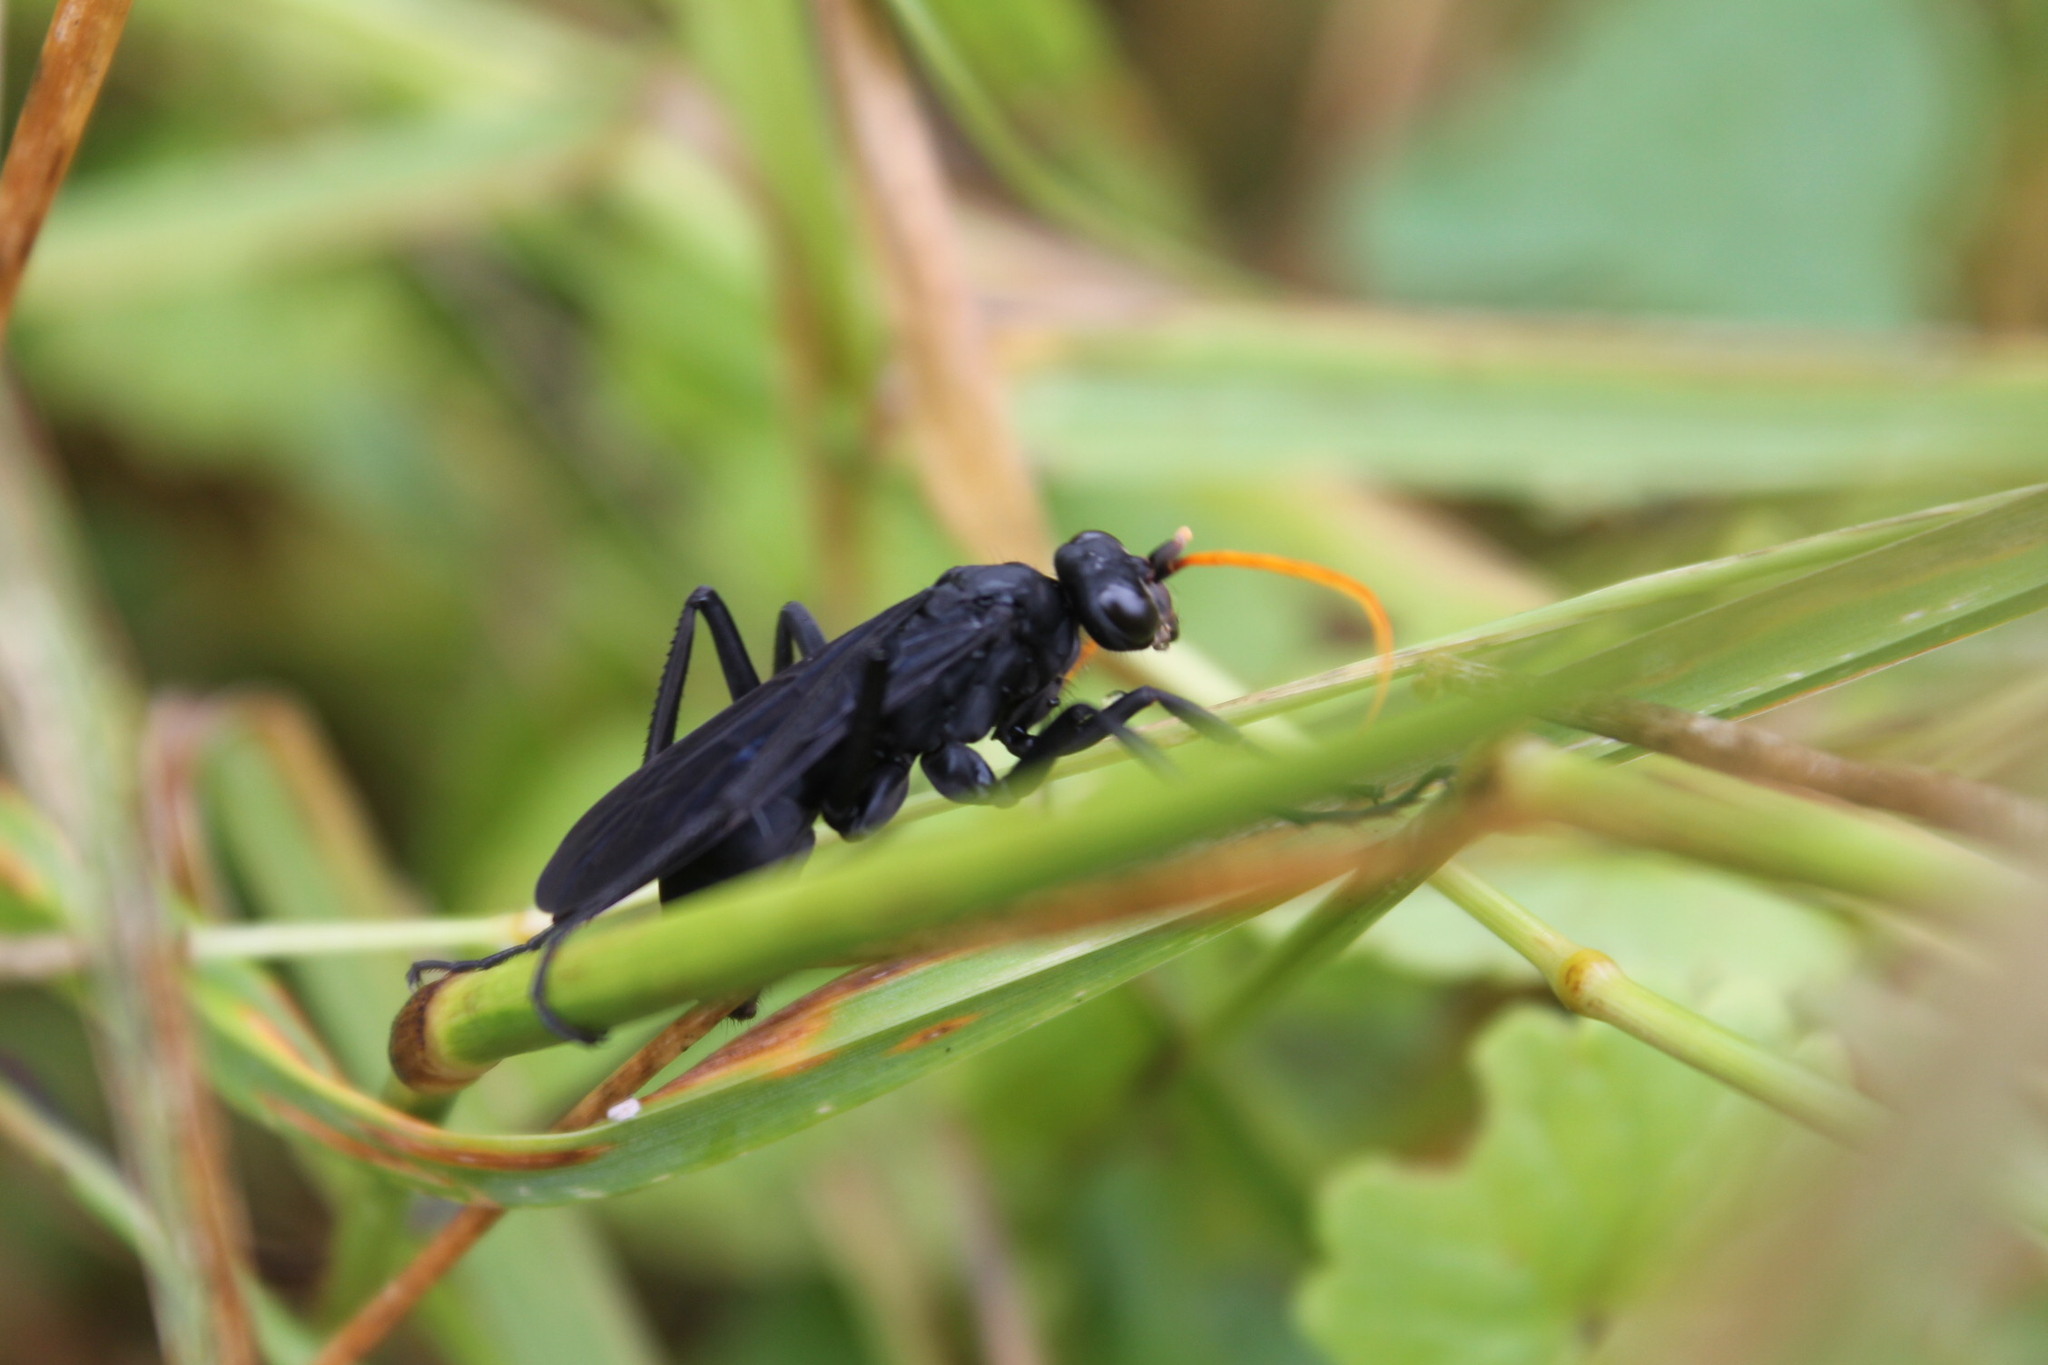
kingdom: Animalia
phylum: Arthropoda
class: Insecta
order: Hymenoptera
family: Pompilidae
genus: Entypus
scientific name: Entypus fulvicornis
